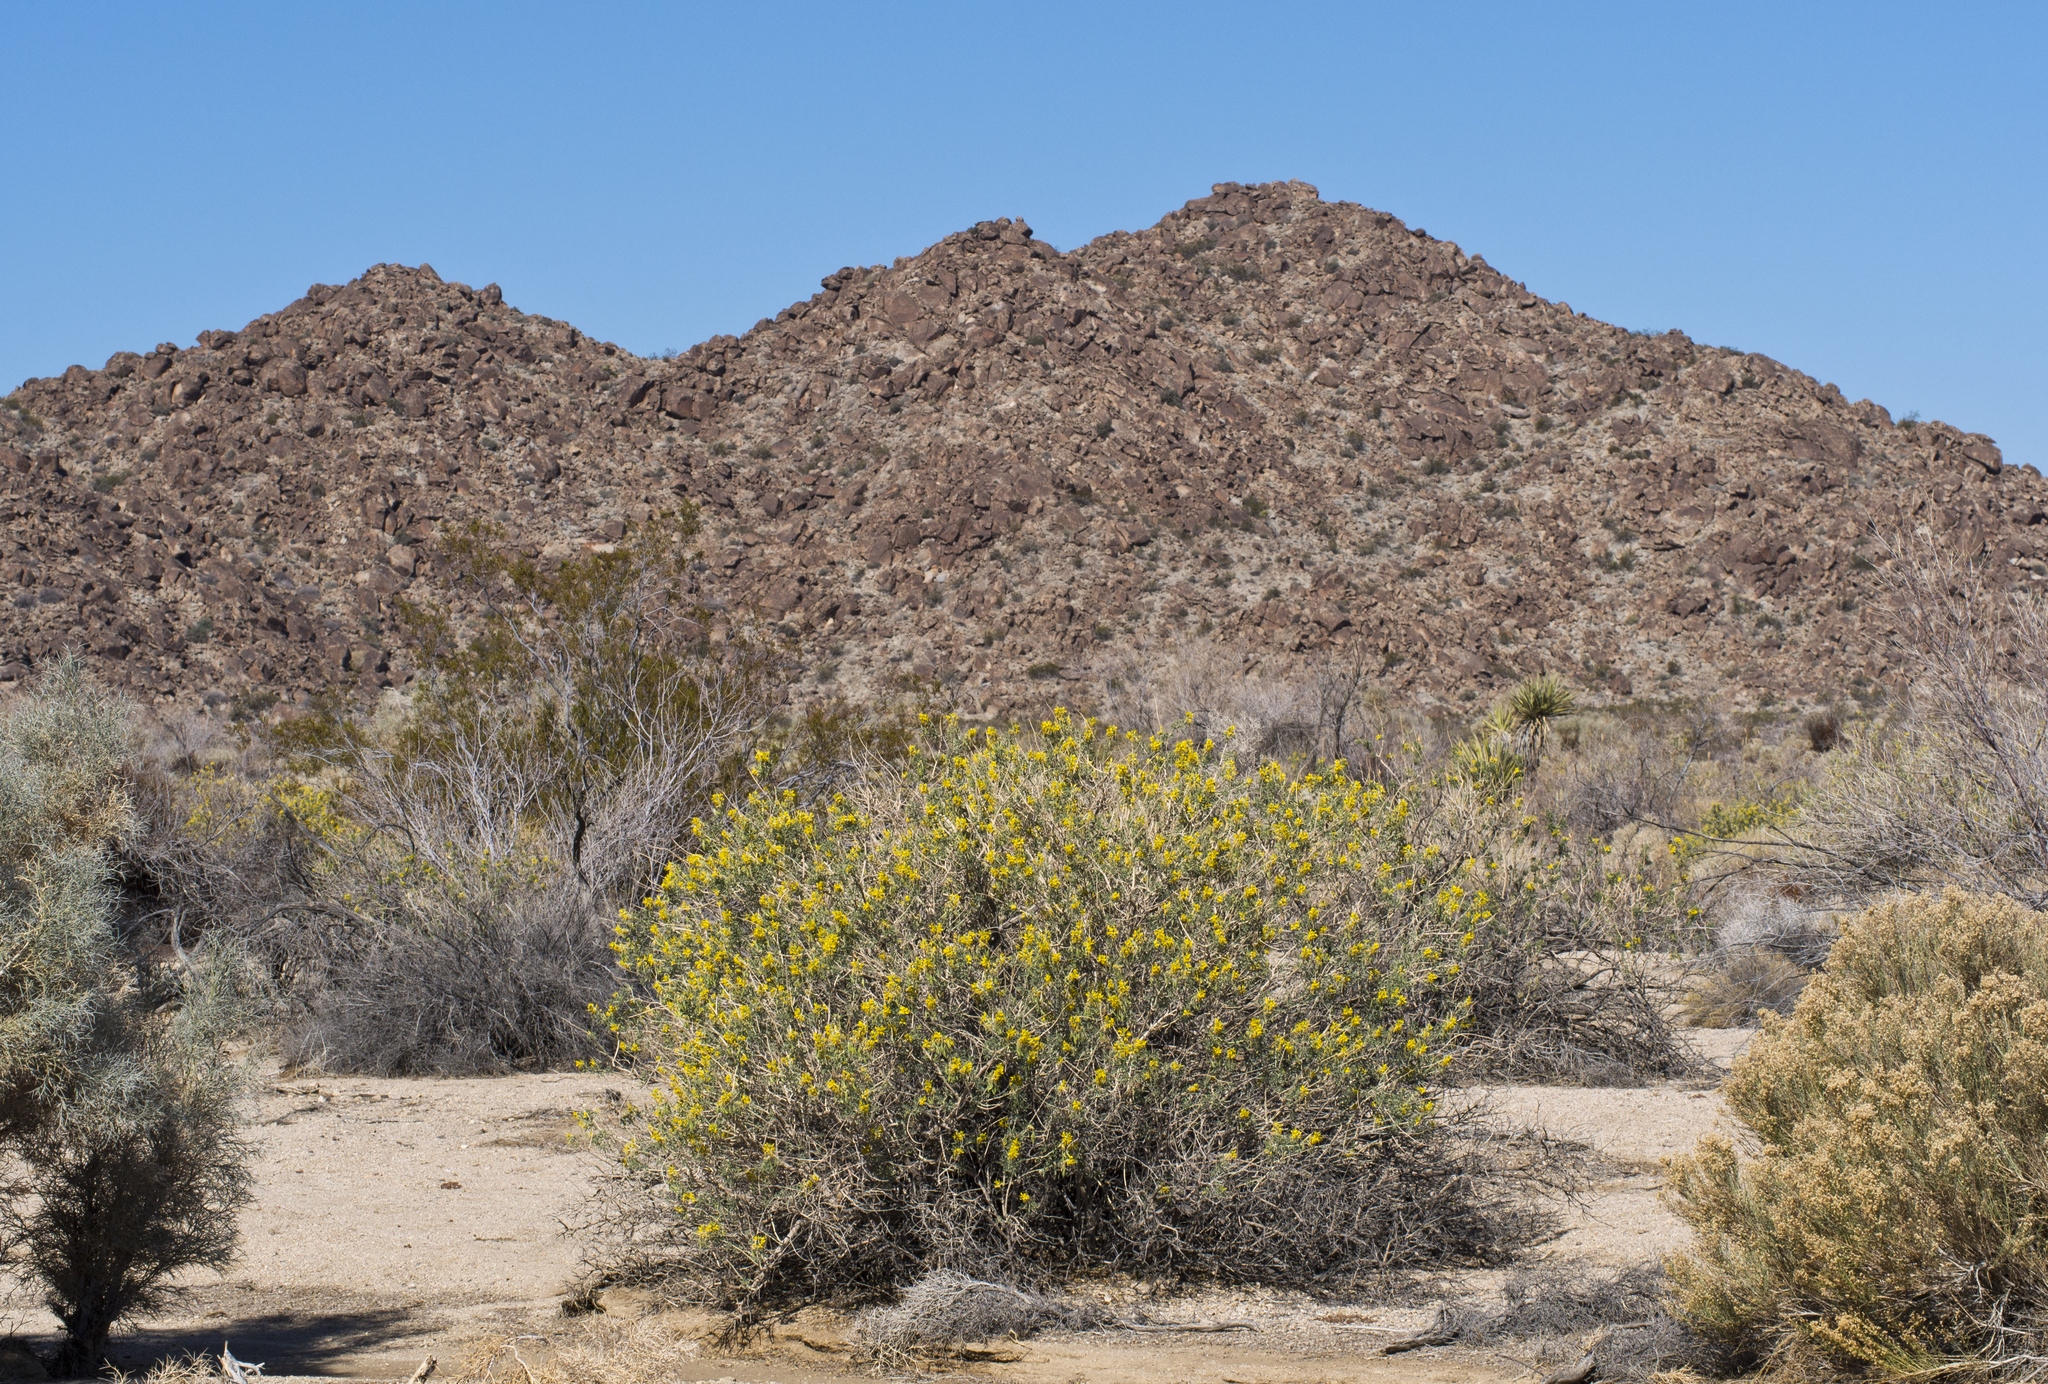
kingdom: Plantae
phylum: Tracheophyta
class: Magnoliopsida
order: Brassicales
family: Cleomaceae
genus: Cleomella
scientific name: Cleomella arborea
